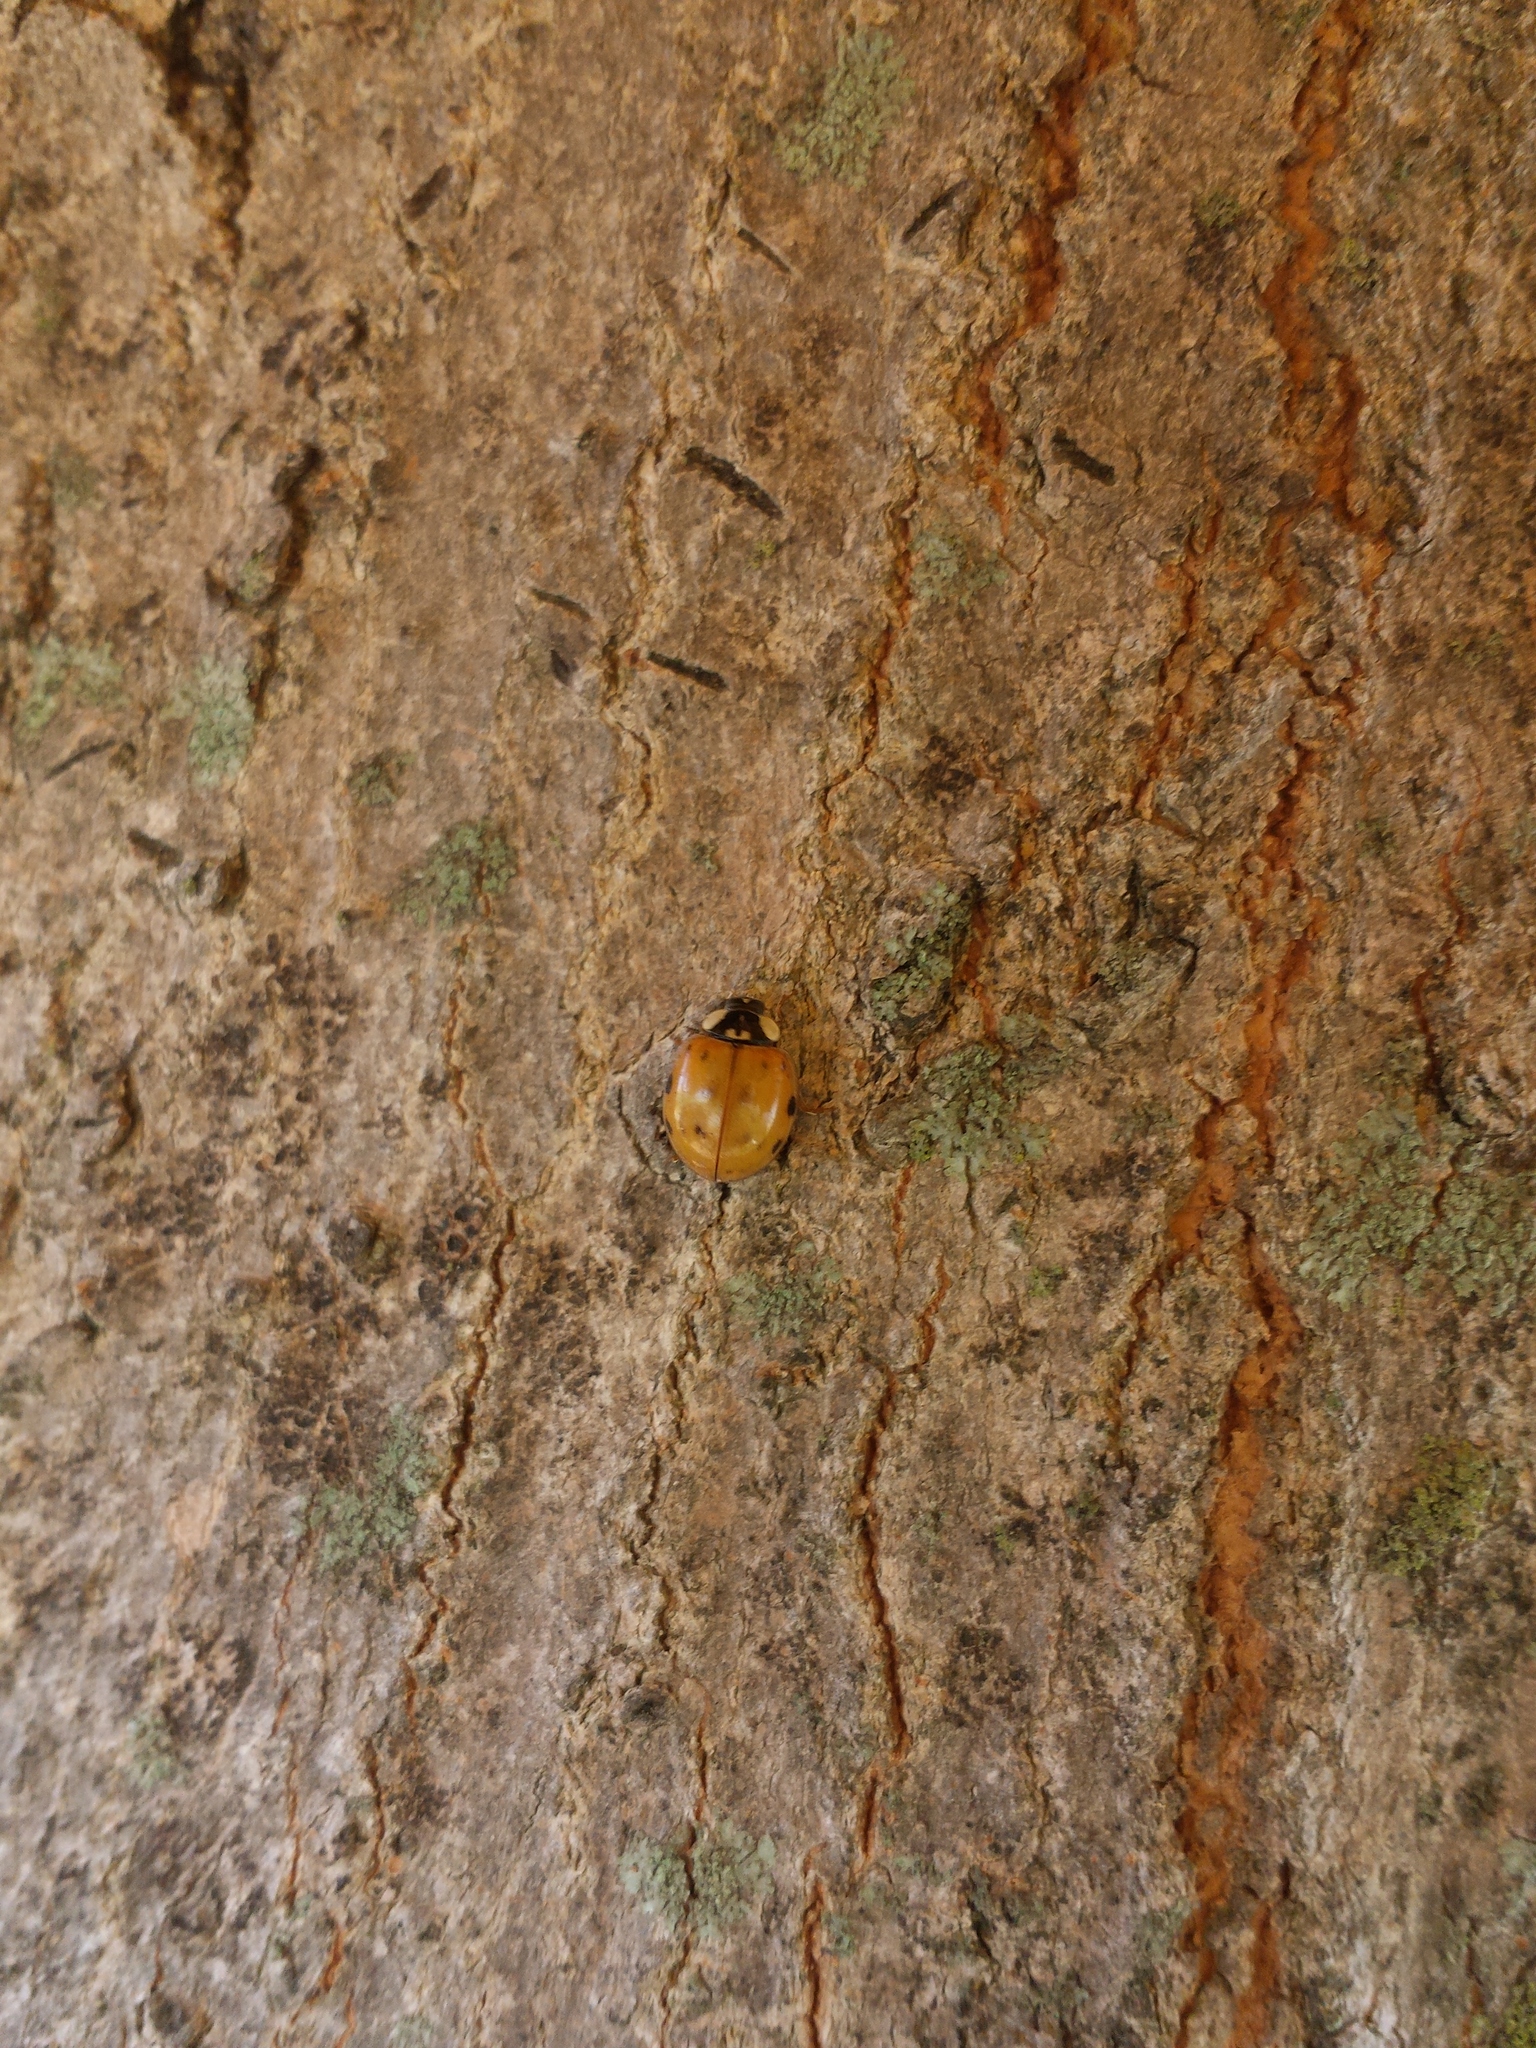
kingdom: Animalia
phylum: Arthropoda
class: Insecta
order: Coleoptera
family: Coccinellidae
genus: Harmonia
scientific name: Harmonia axyridis
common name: Harlequin ladybird
